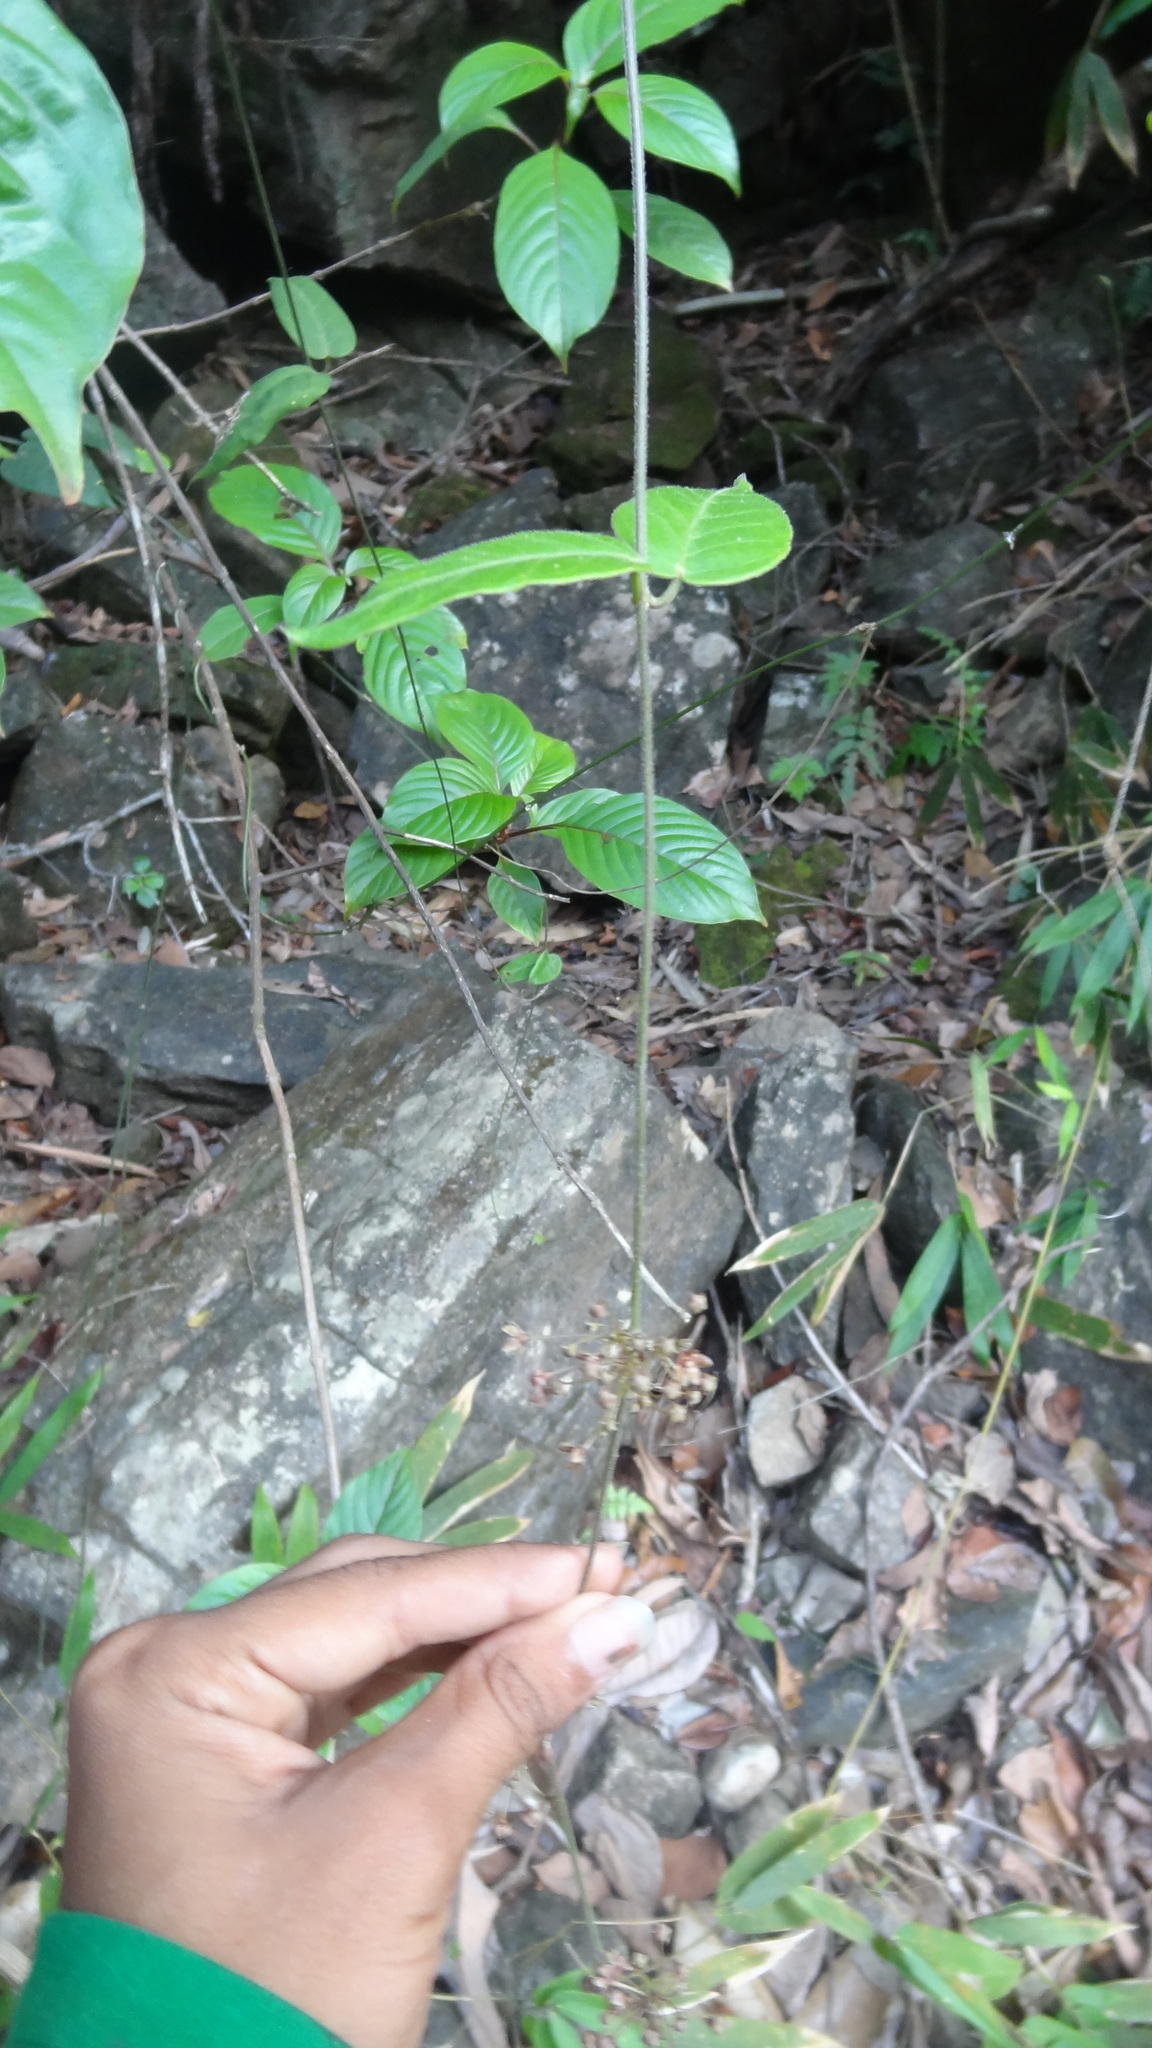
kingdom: Plantae
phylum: Tracheophyta
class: Magnoliopsida
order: Gentianales
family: Apocynaceae
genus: Vincetoxicum
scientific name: Vincetoxicum dalzellii
